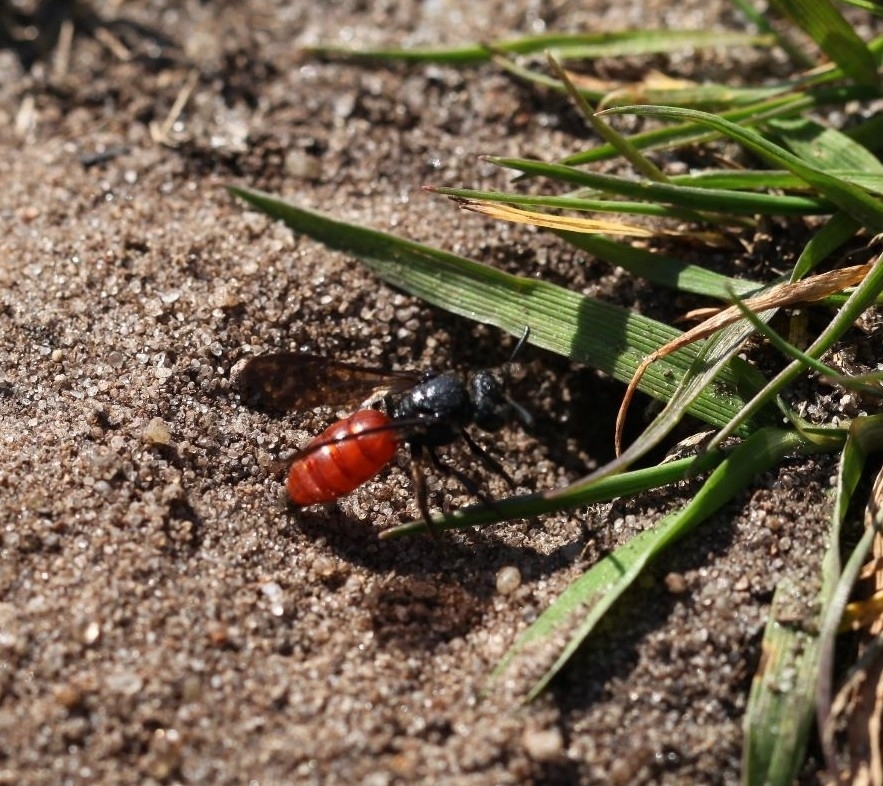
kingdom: Animalia
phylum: Arthropoda
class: Insecta
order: Hymenoptera
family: Halictidae
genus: Sphecodes
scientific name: Sphecodes albilabris
